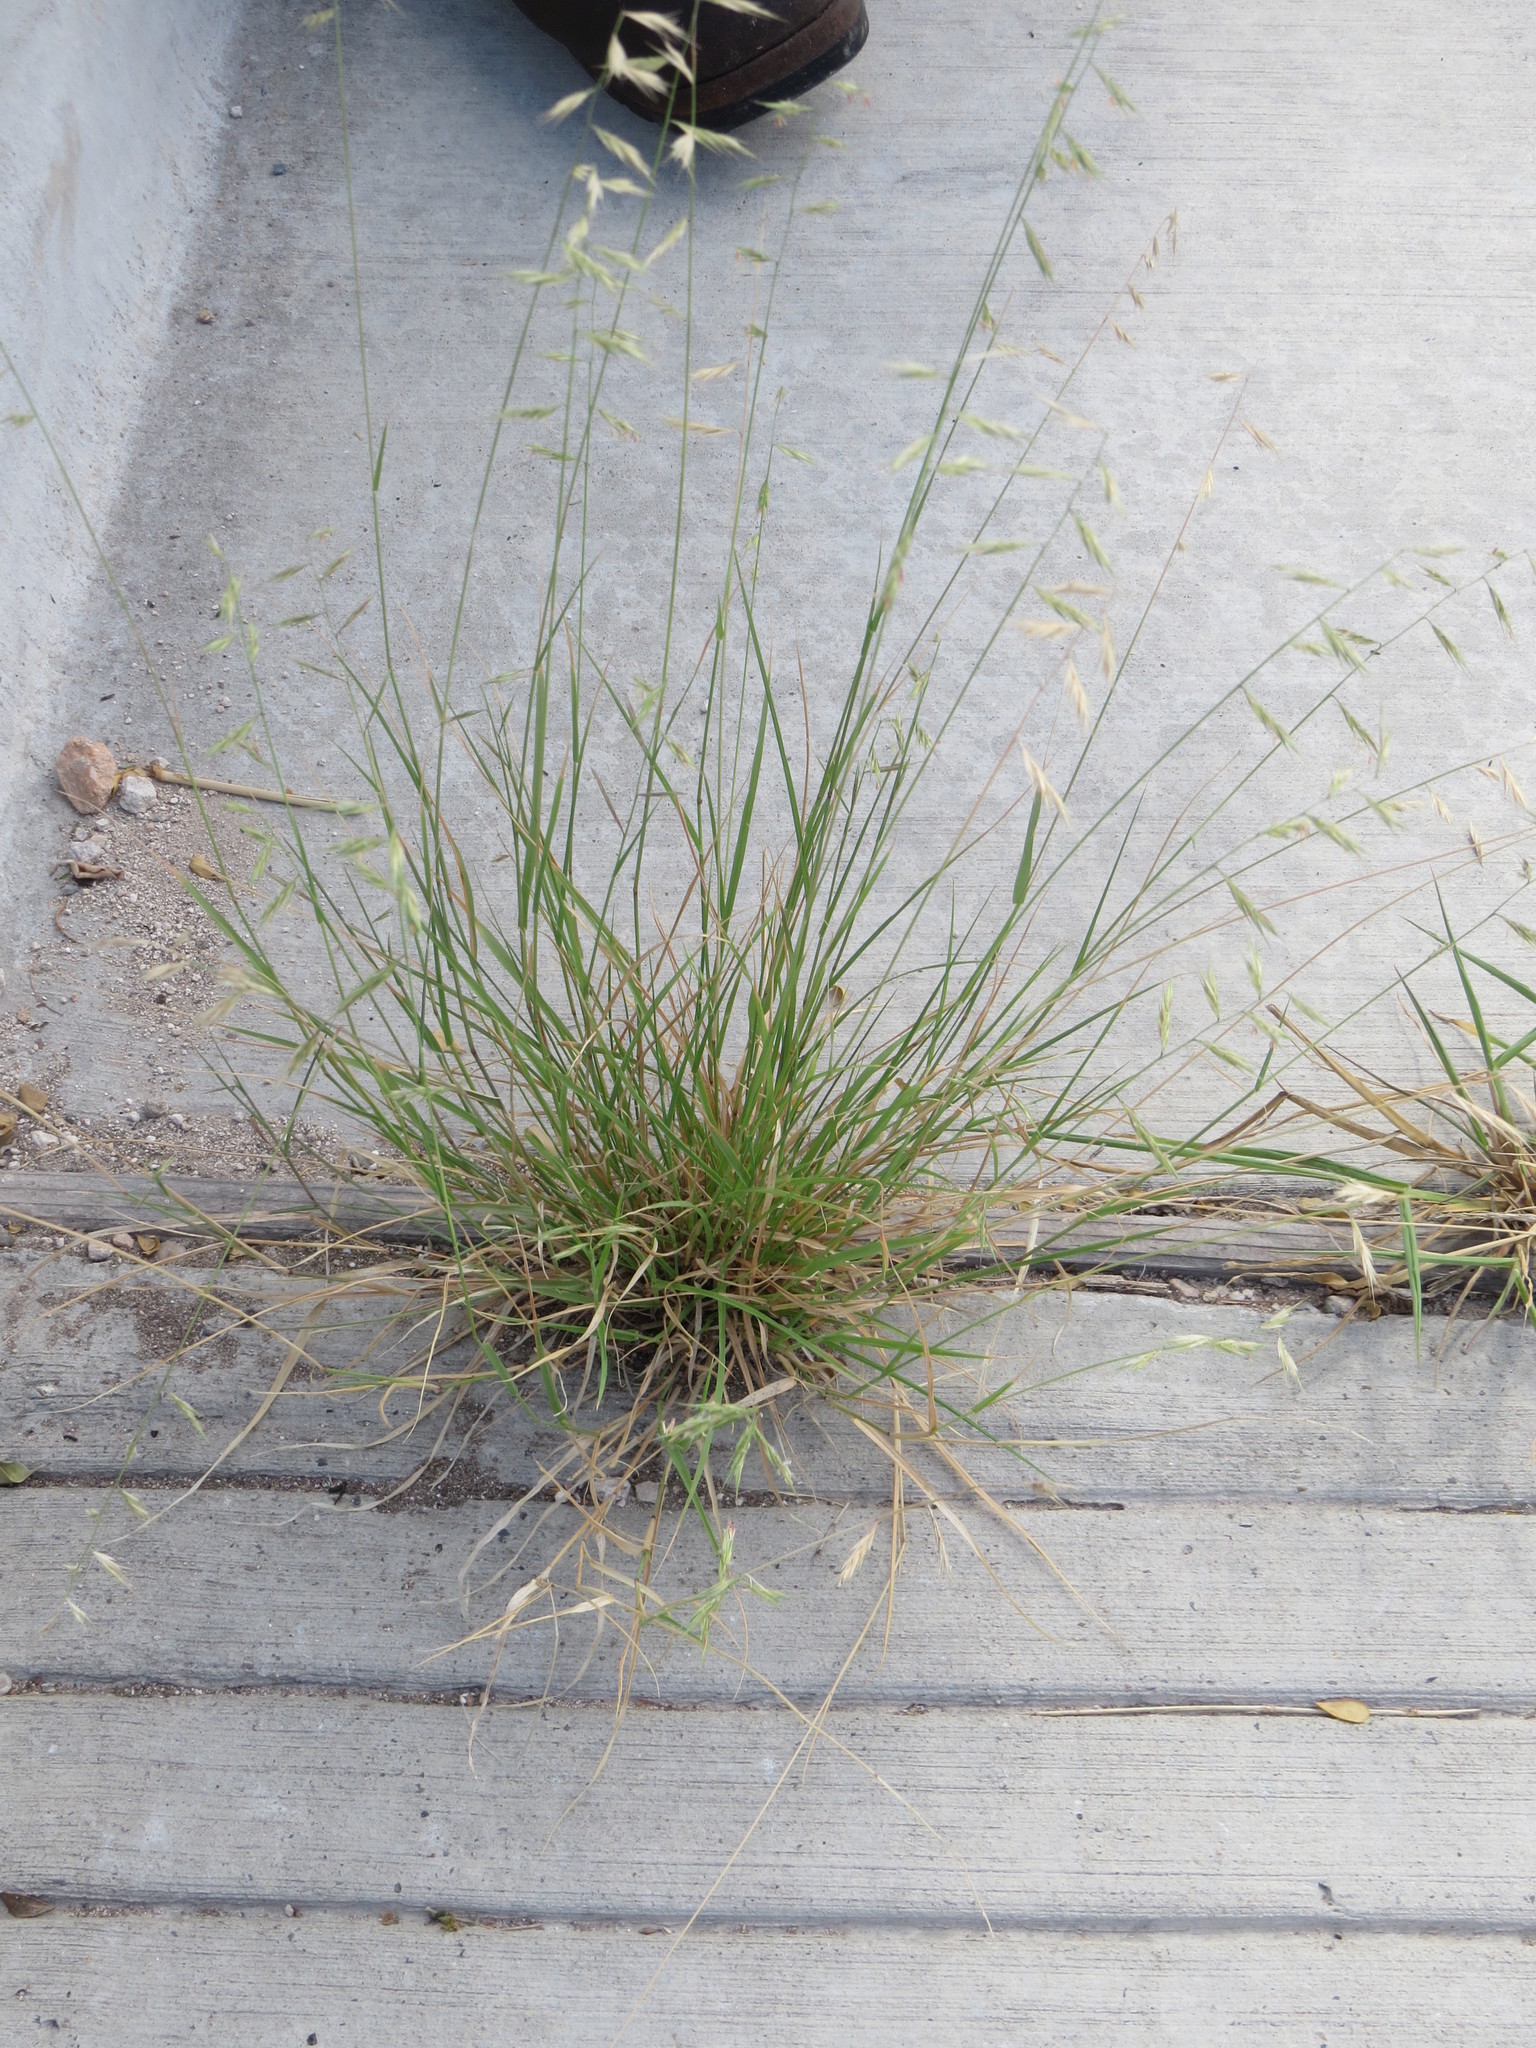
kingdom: Plantae
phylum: Tracheophyta
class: Liliopsida
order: Poales
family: Poaceae
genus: Bouteloua
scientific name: Bouteloua repens
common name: Slender grama
